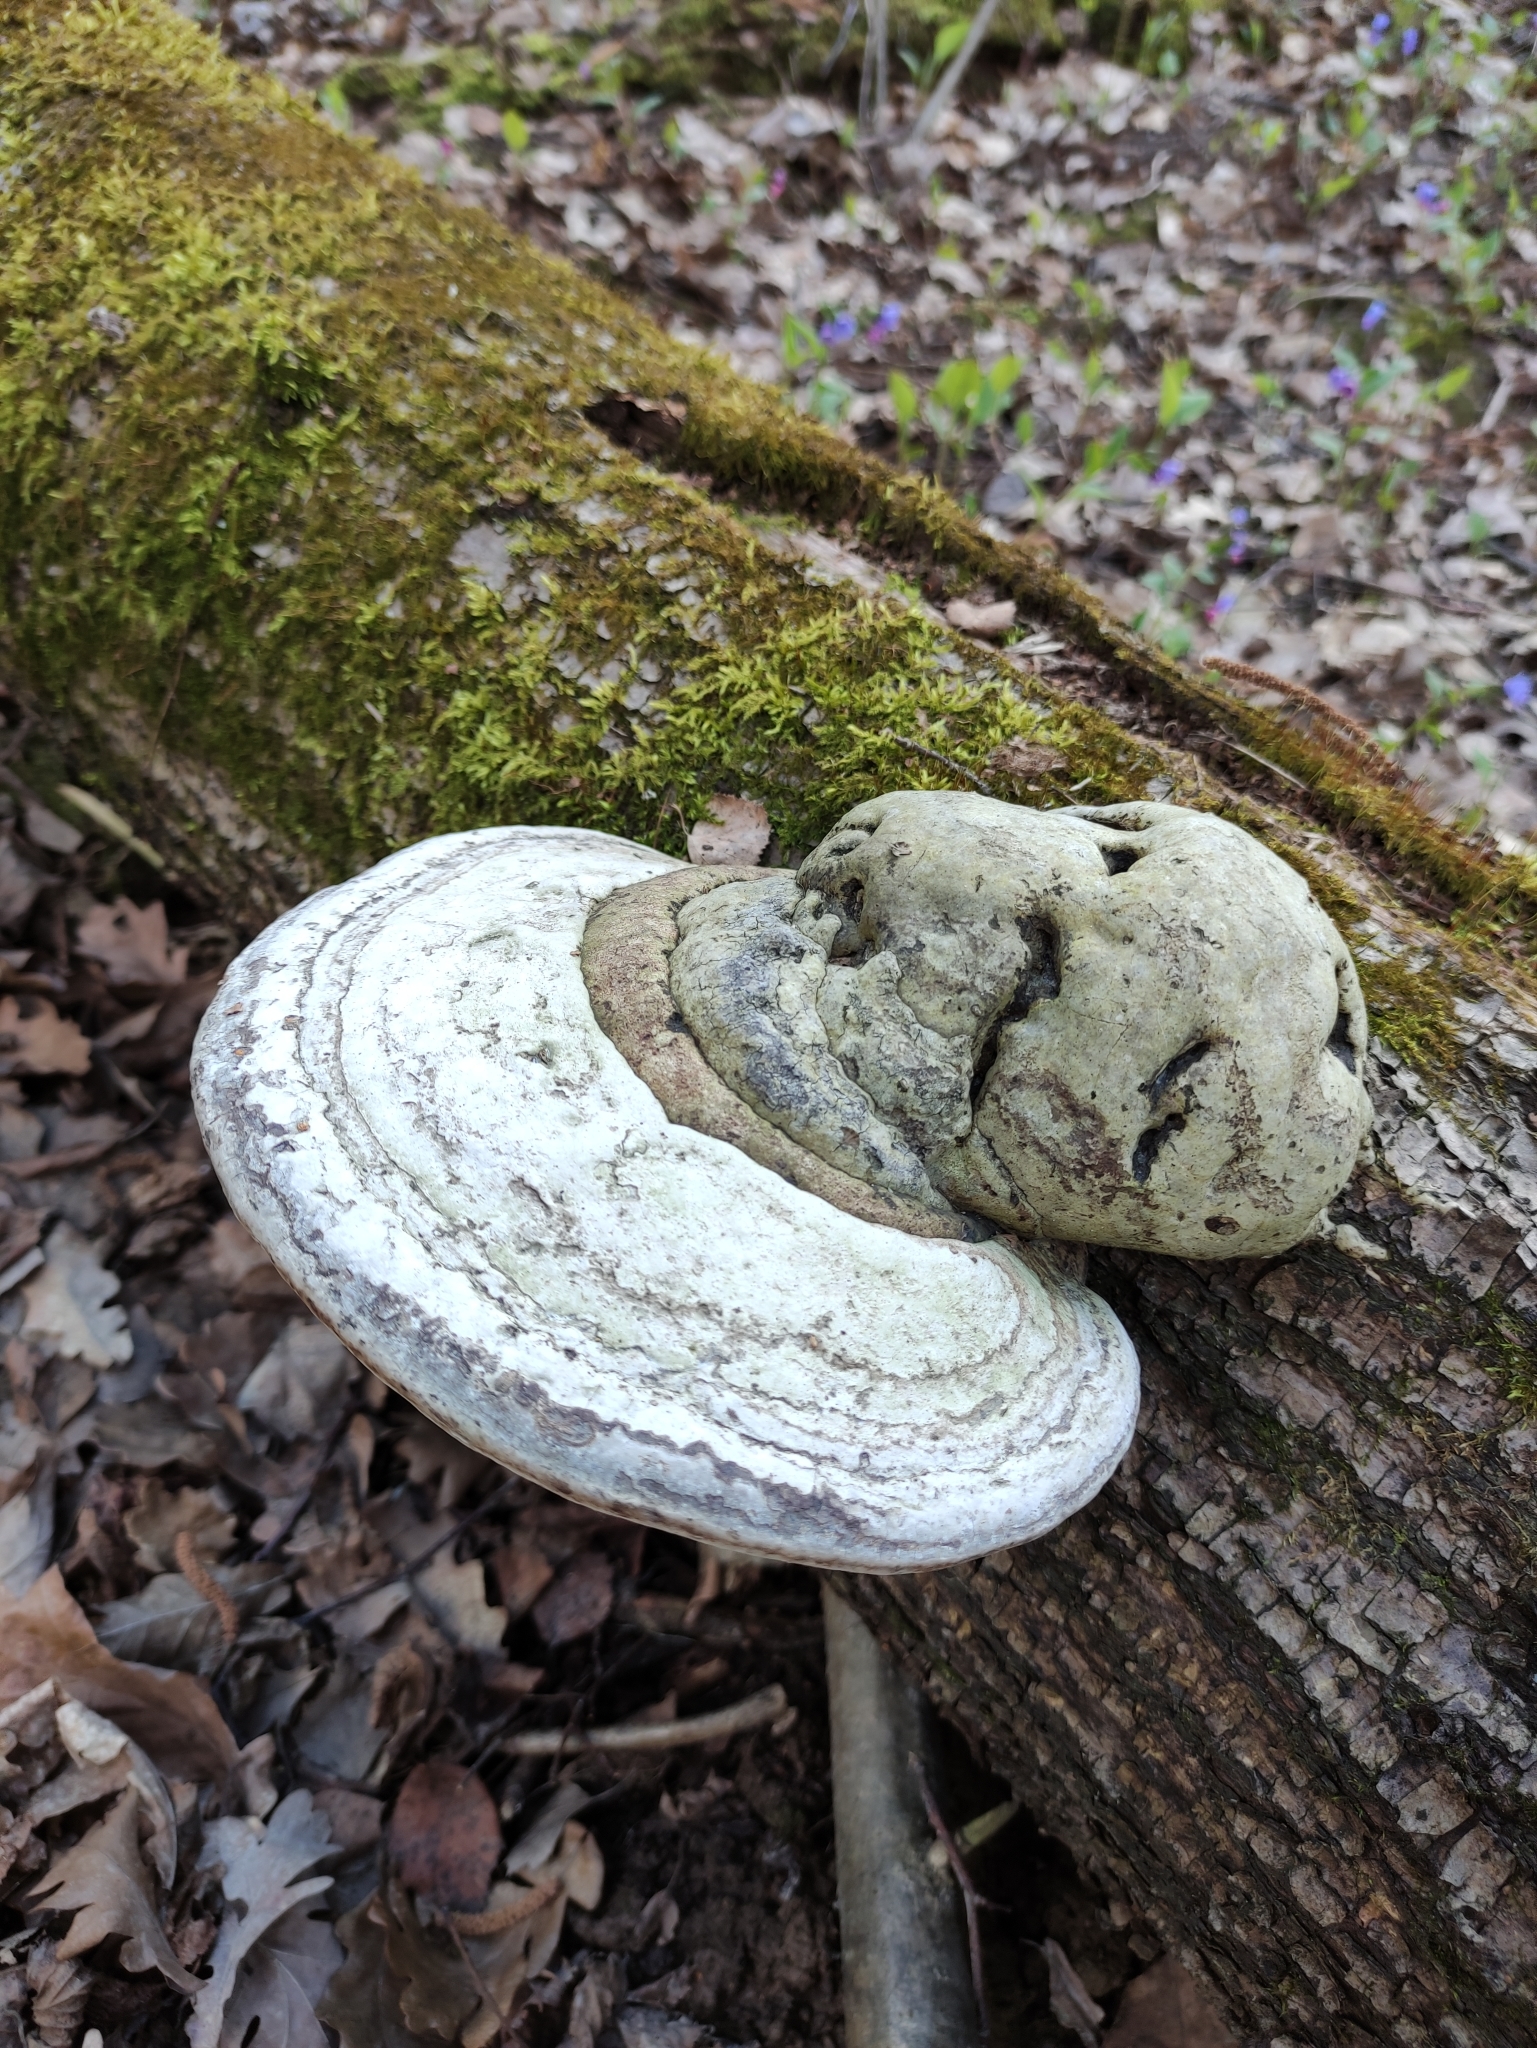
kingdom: Fungi
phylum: Basidiomycota
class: Agaricomycetes
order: Polyporales
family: Polyporaceae
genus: Fomes
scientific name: Fomes fomentarius
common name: Hoof fungus
